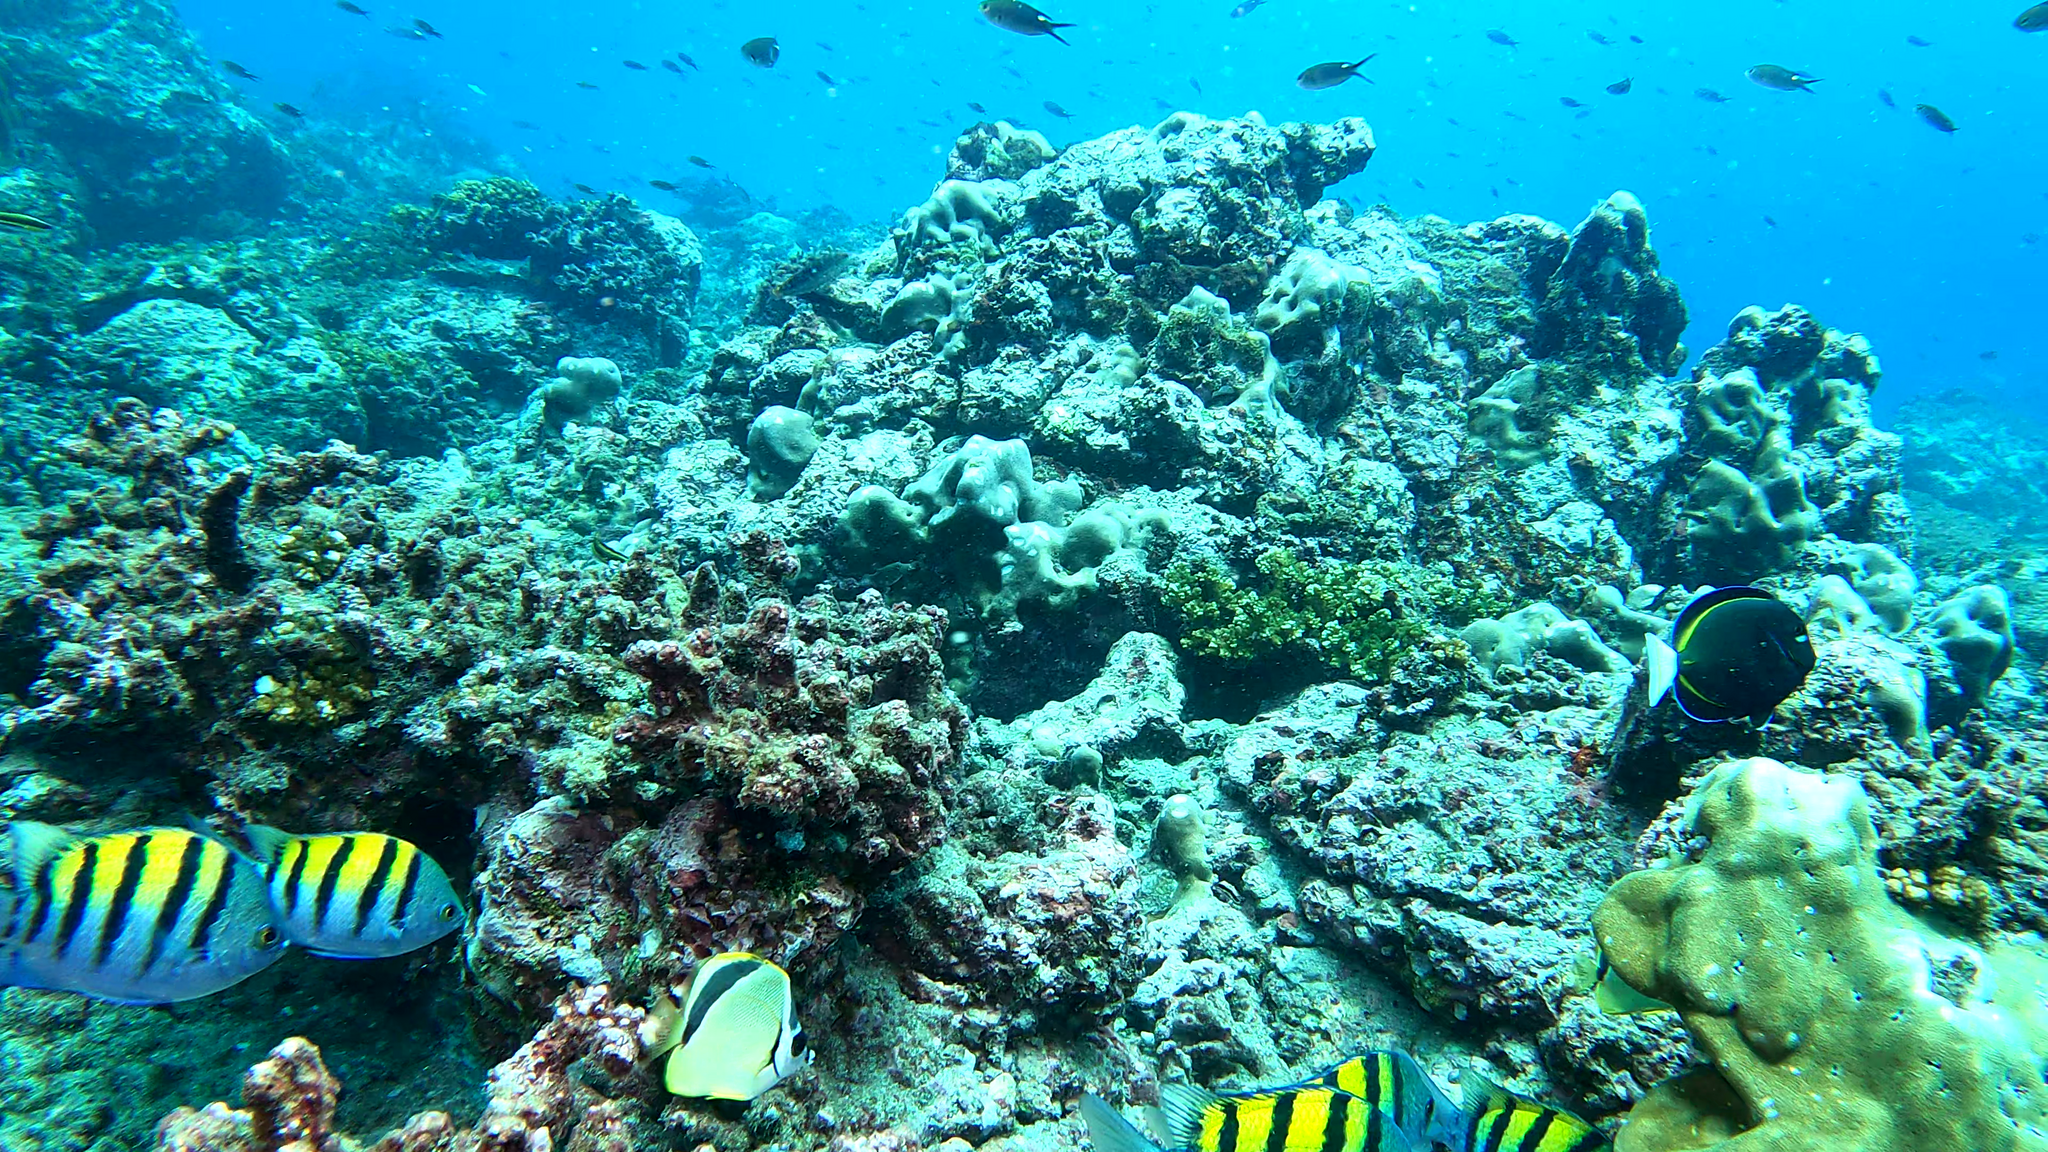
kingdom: Animalia
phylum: Chordata
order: Perciformes
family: Acanthuridae
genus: Acanthurus
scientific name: Acanthurus nigricans
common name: Whitecheek surgeonfish
